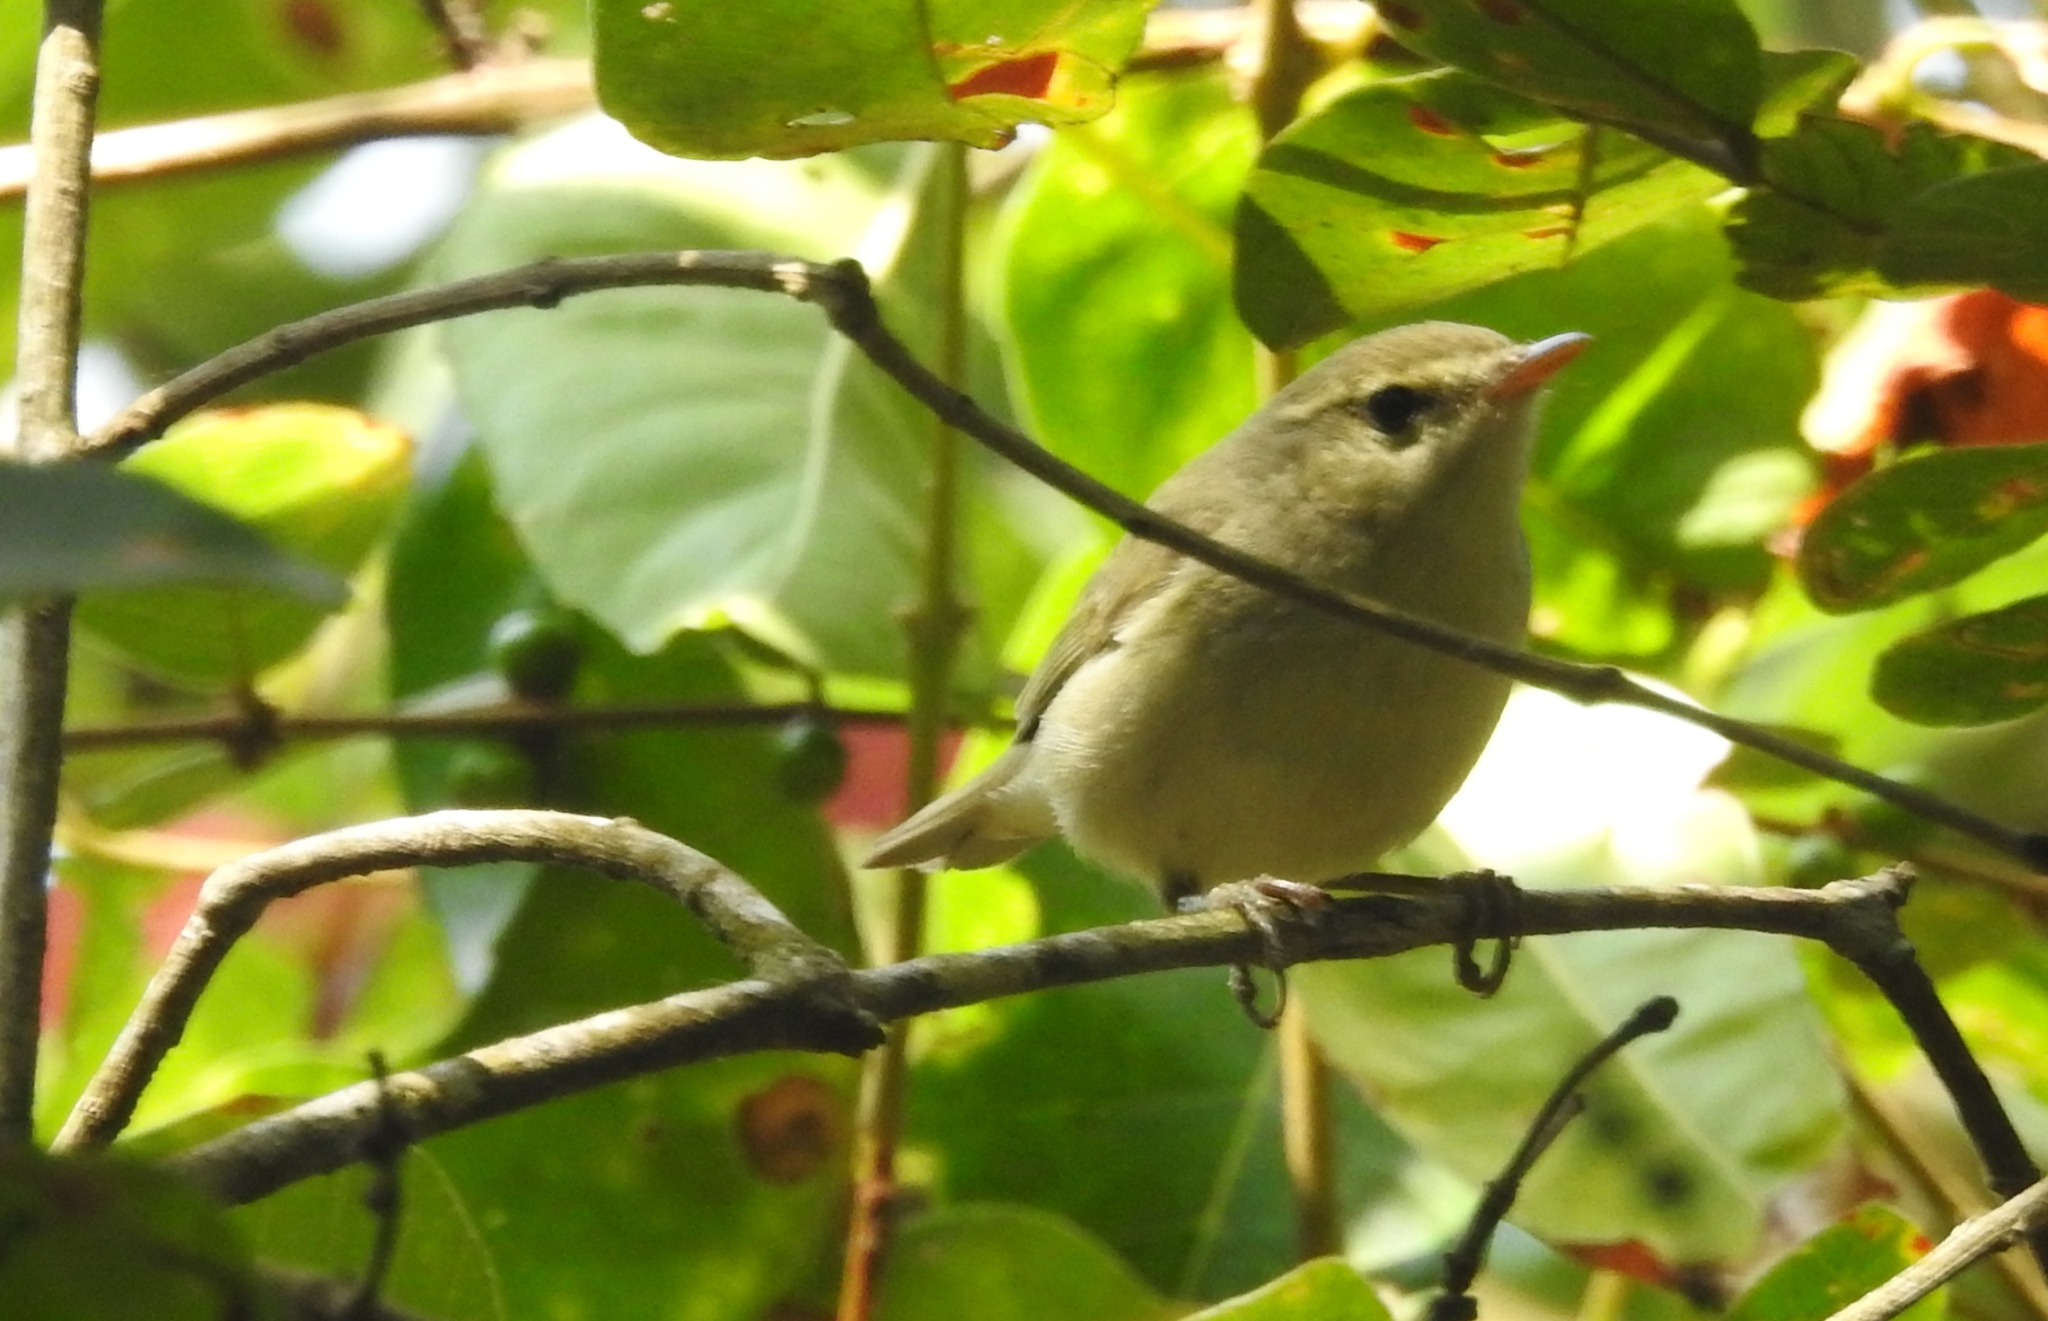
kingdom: Animalia
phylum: Chordata
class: Aves
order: Passeriformes
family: Phylloscopidae
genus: Phylloscopus
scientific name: Phylloscopus trochiloides
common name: Greenish warbler
